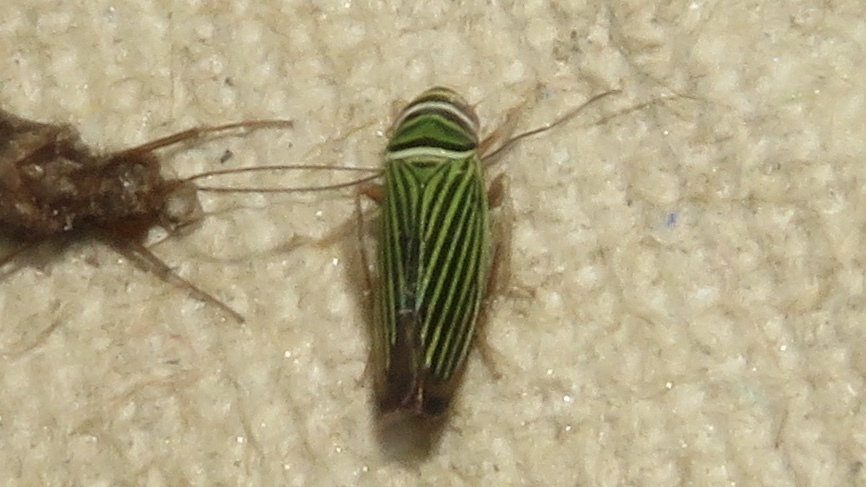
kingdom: Animalia
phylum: Arthropoda
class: Insecta
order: Hemiptera
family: Cicadellidae
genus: Tylozygus
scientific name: Tylozygus bifidus
